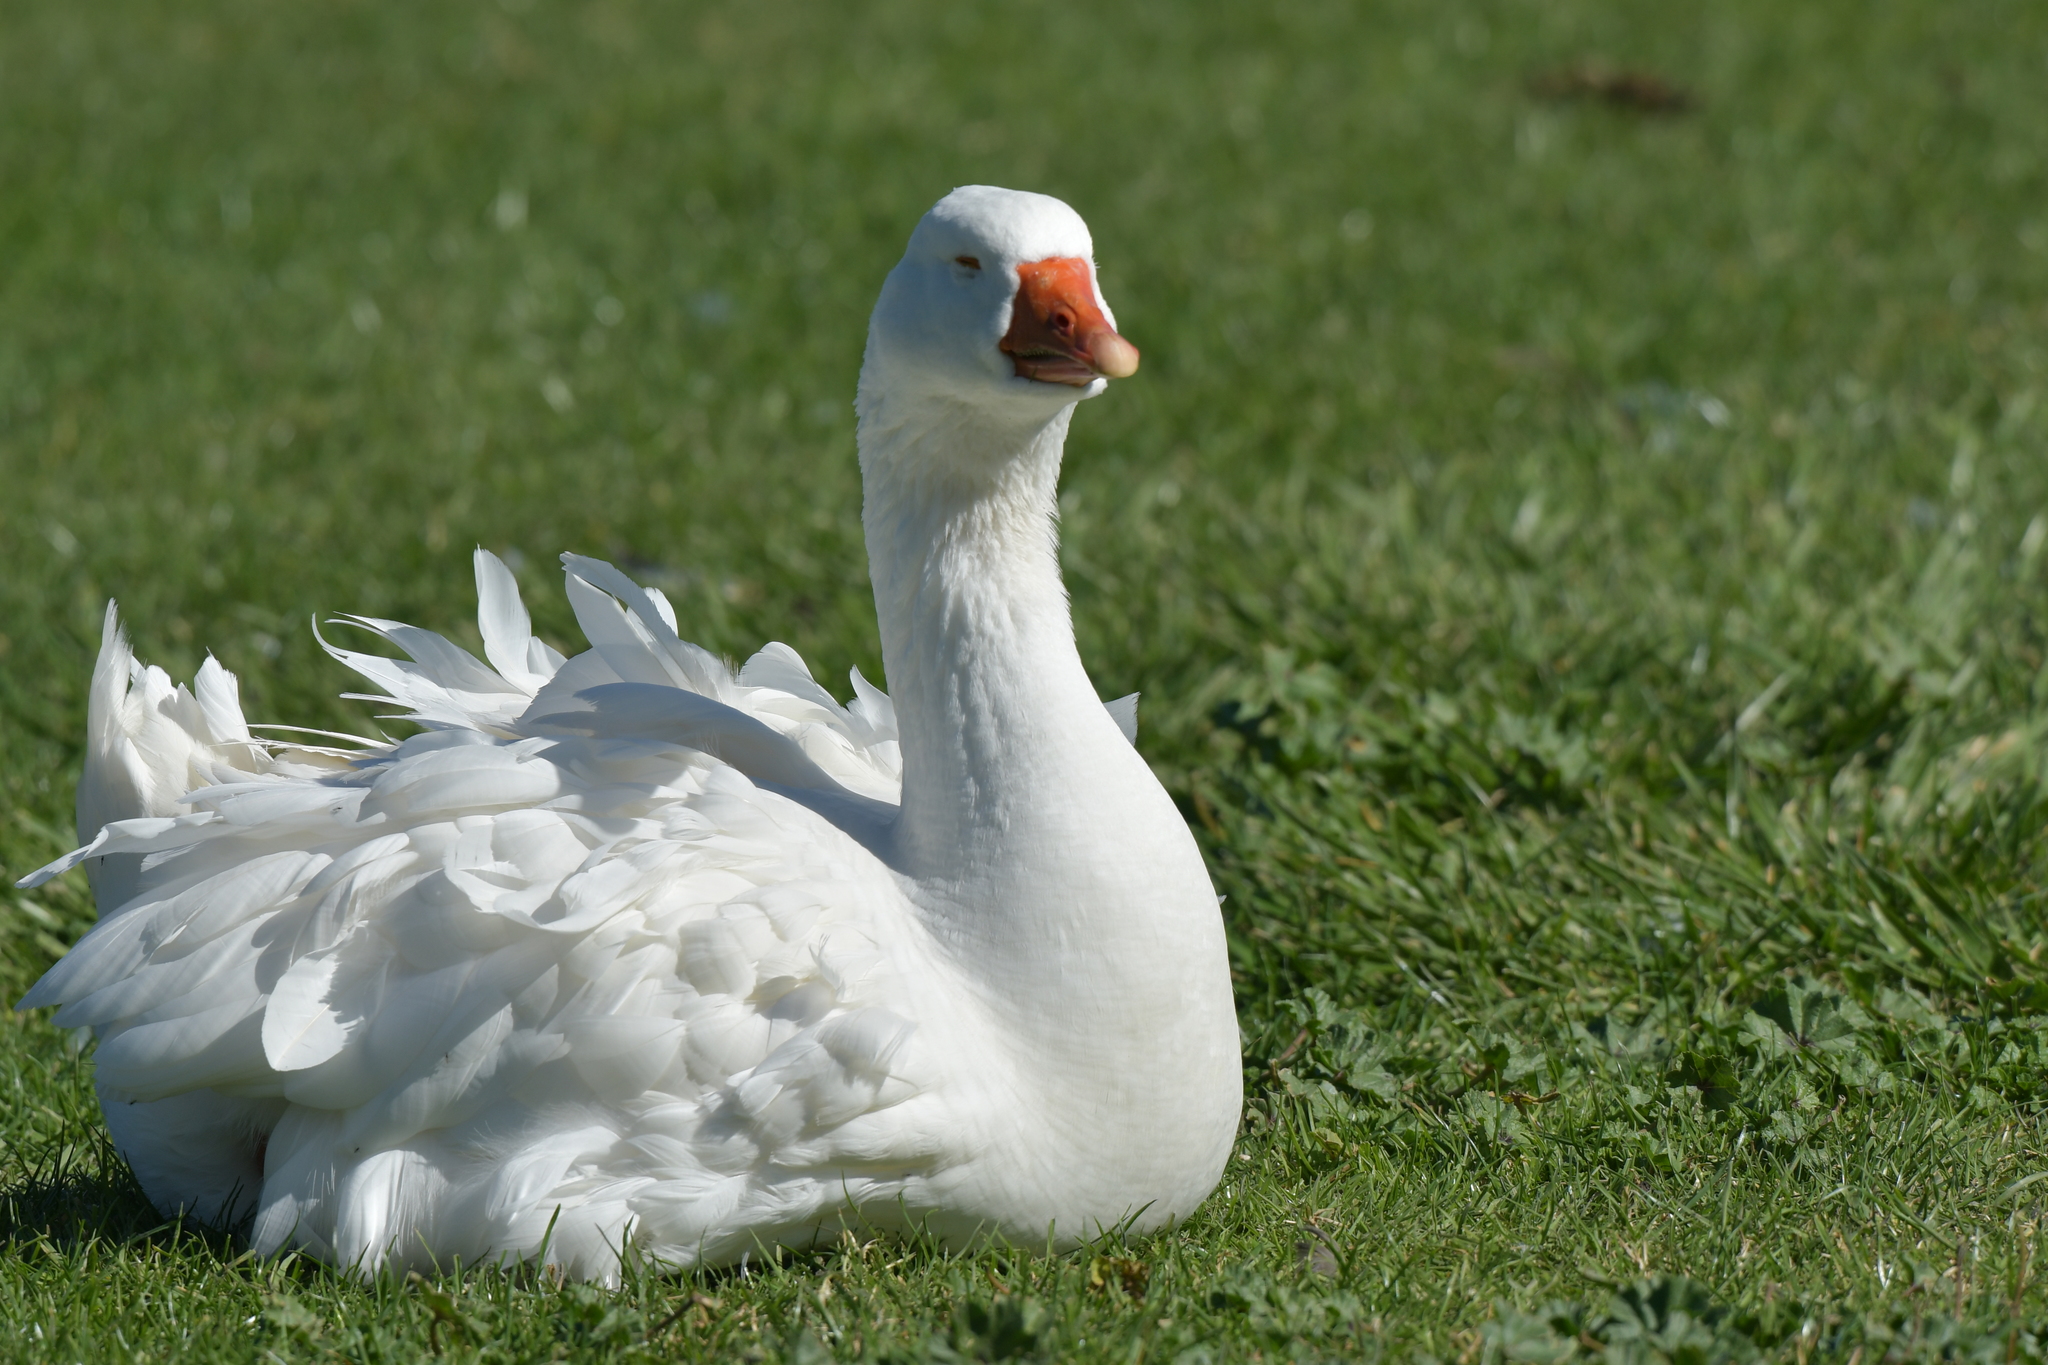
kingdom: Animalia
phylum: Chordata
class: Aves
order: Anseriformes
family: Anatidae
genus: Anser
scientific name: Anser anser
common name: Greylag goose
